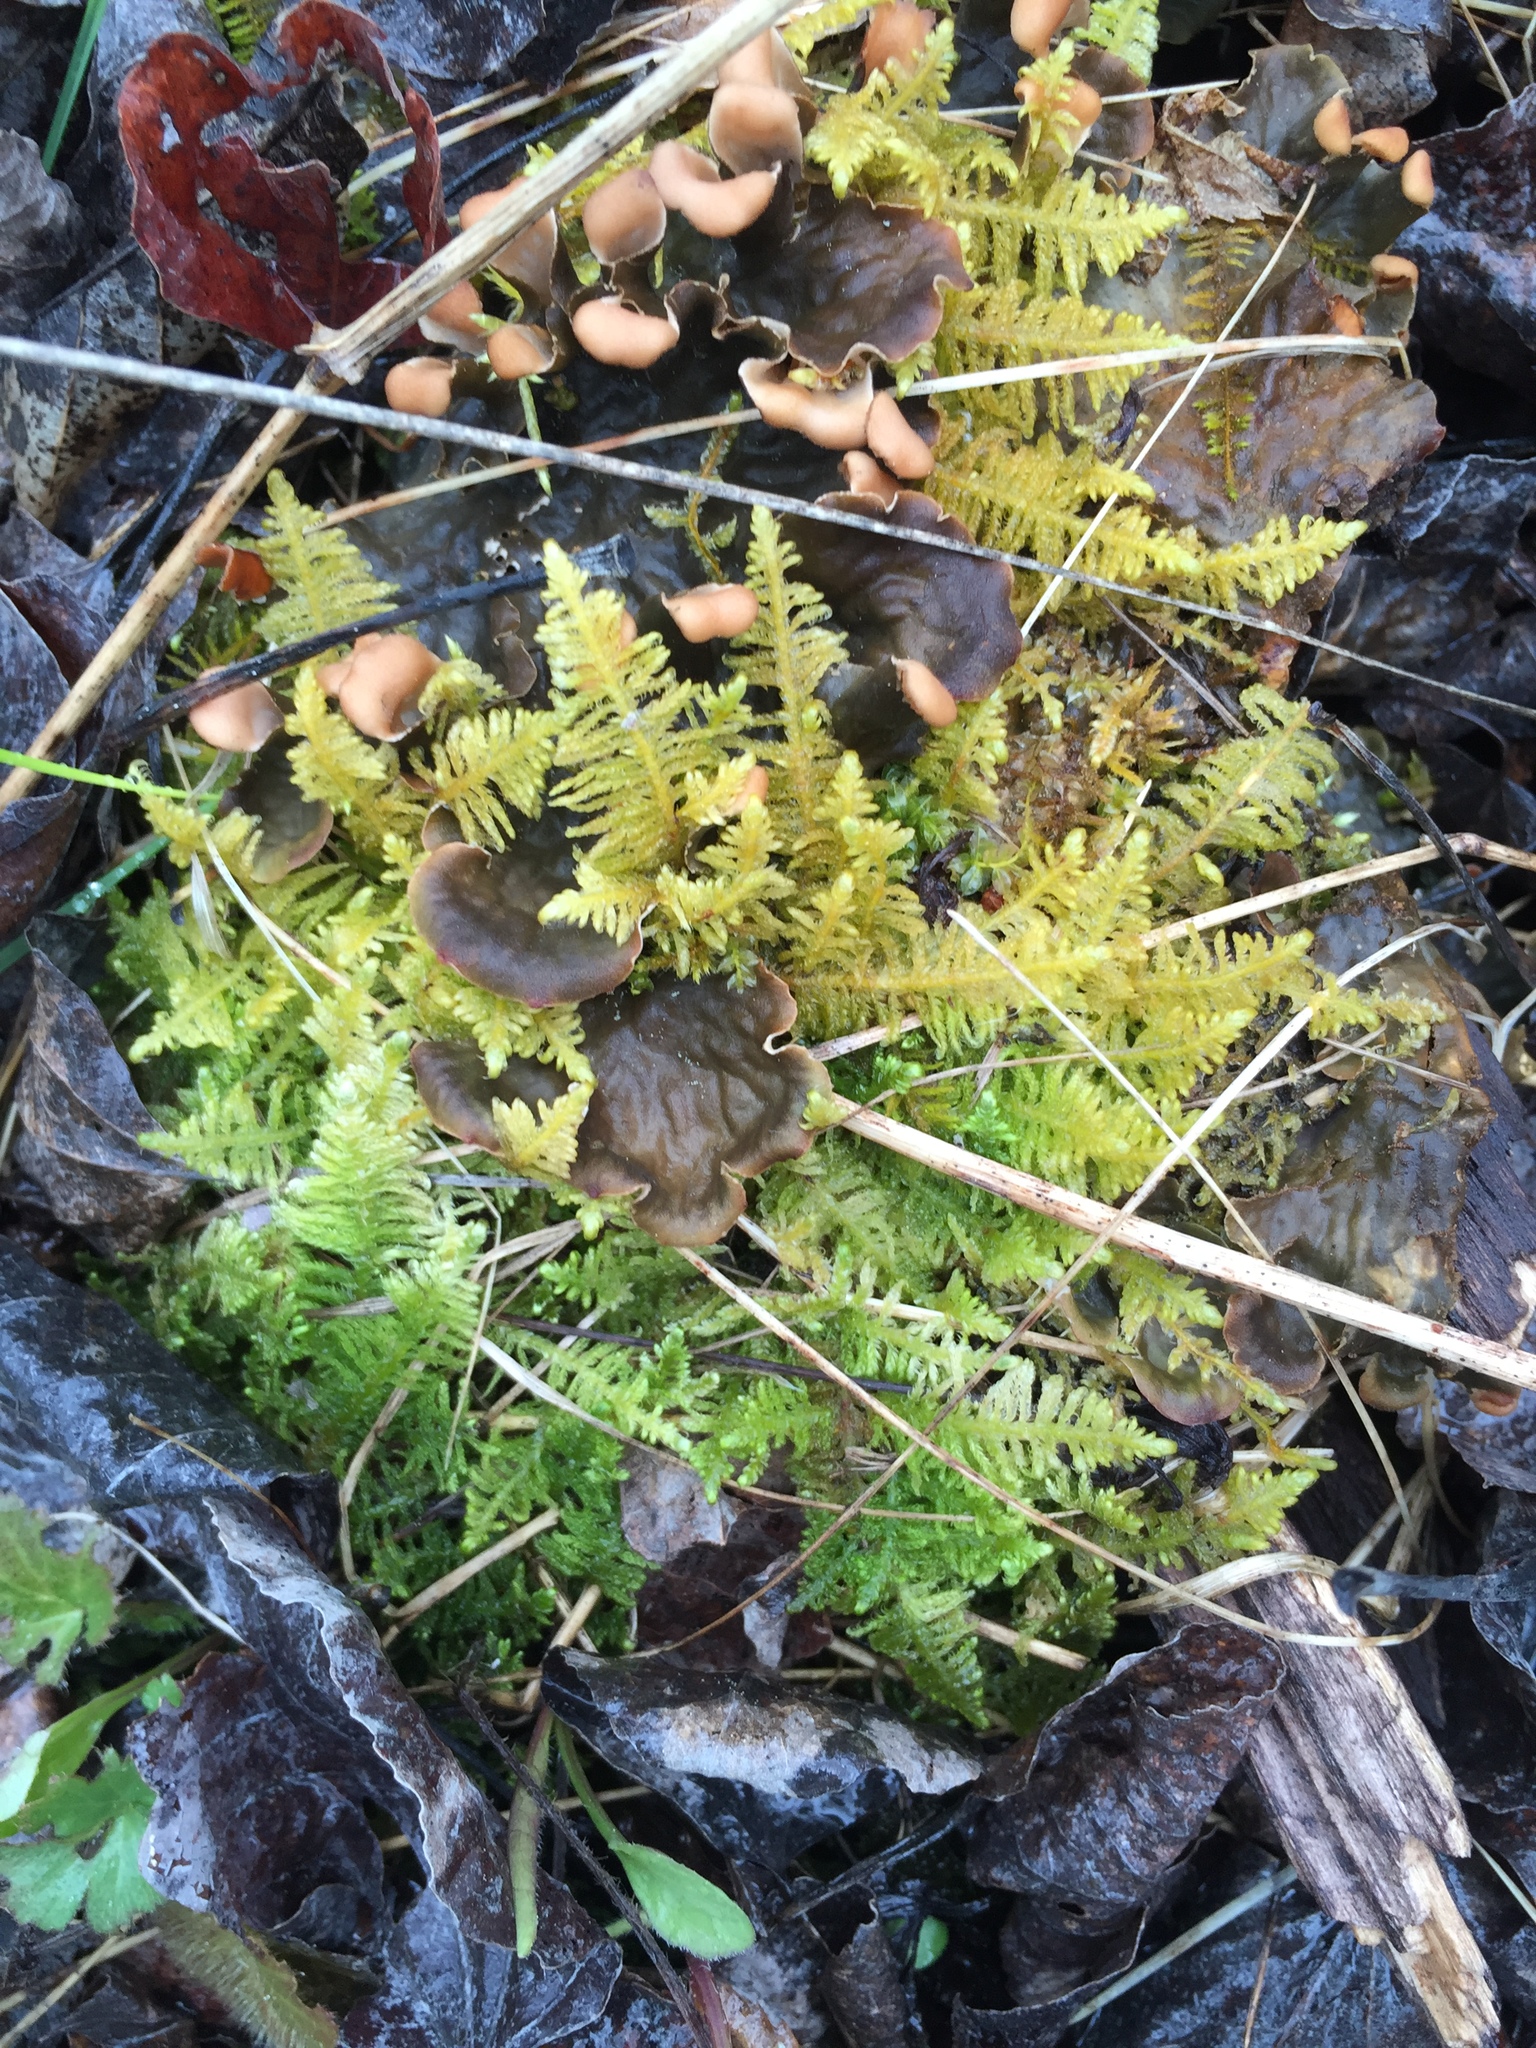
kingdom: Plantae
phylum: Bryophyta
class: Bryopsida
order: Hypnales
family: Pylaisiaceae
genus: Ptilium
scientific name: Ptilium crista-castrensis
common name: Knight's plume moss
